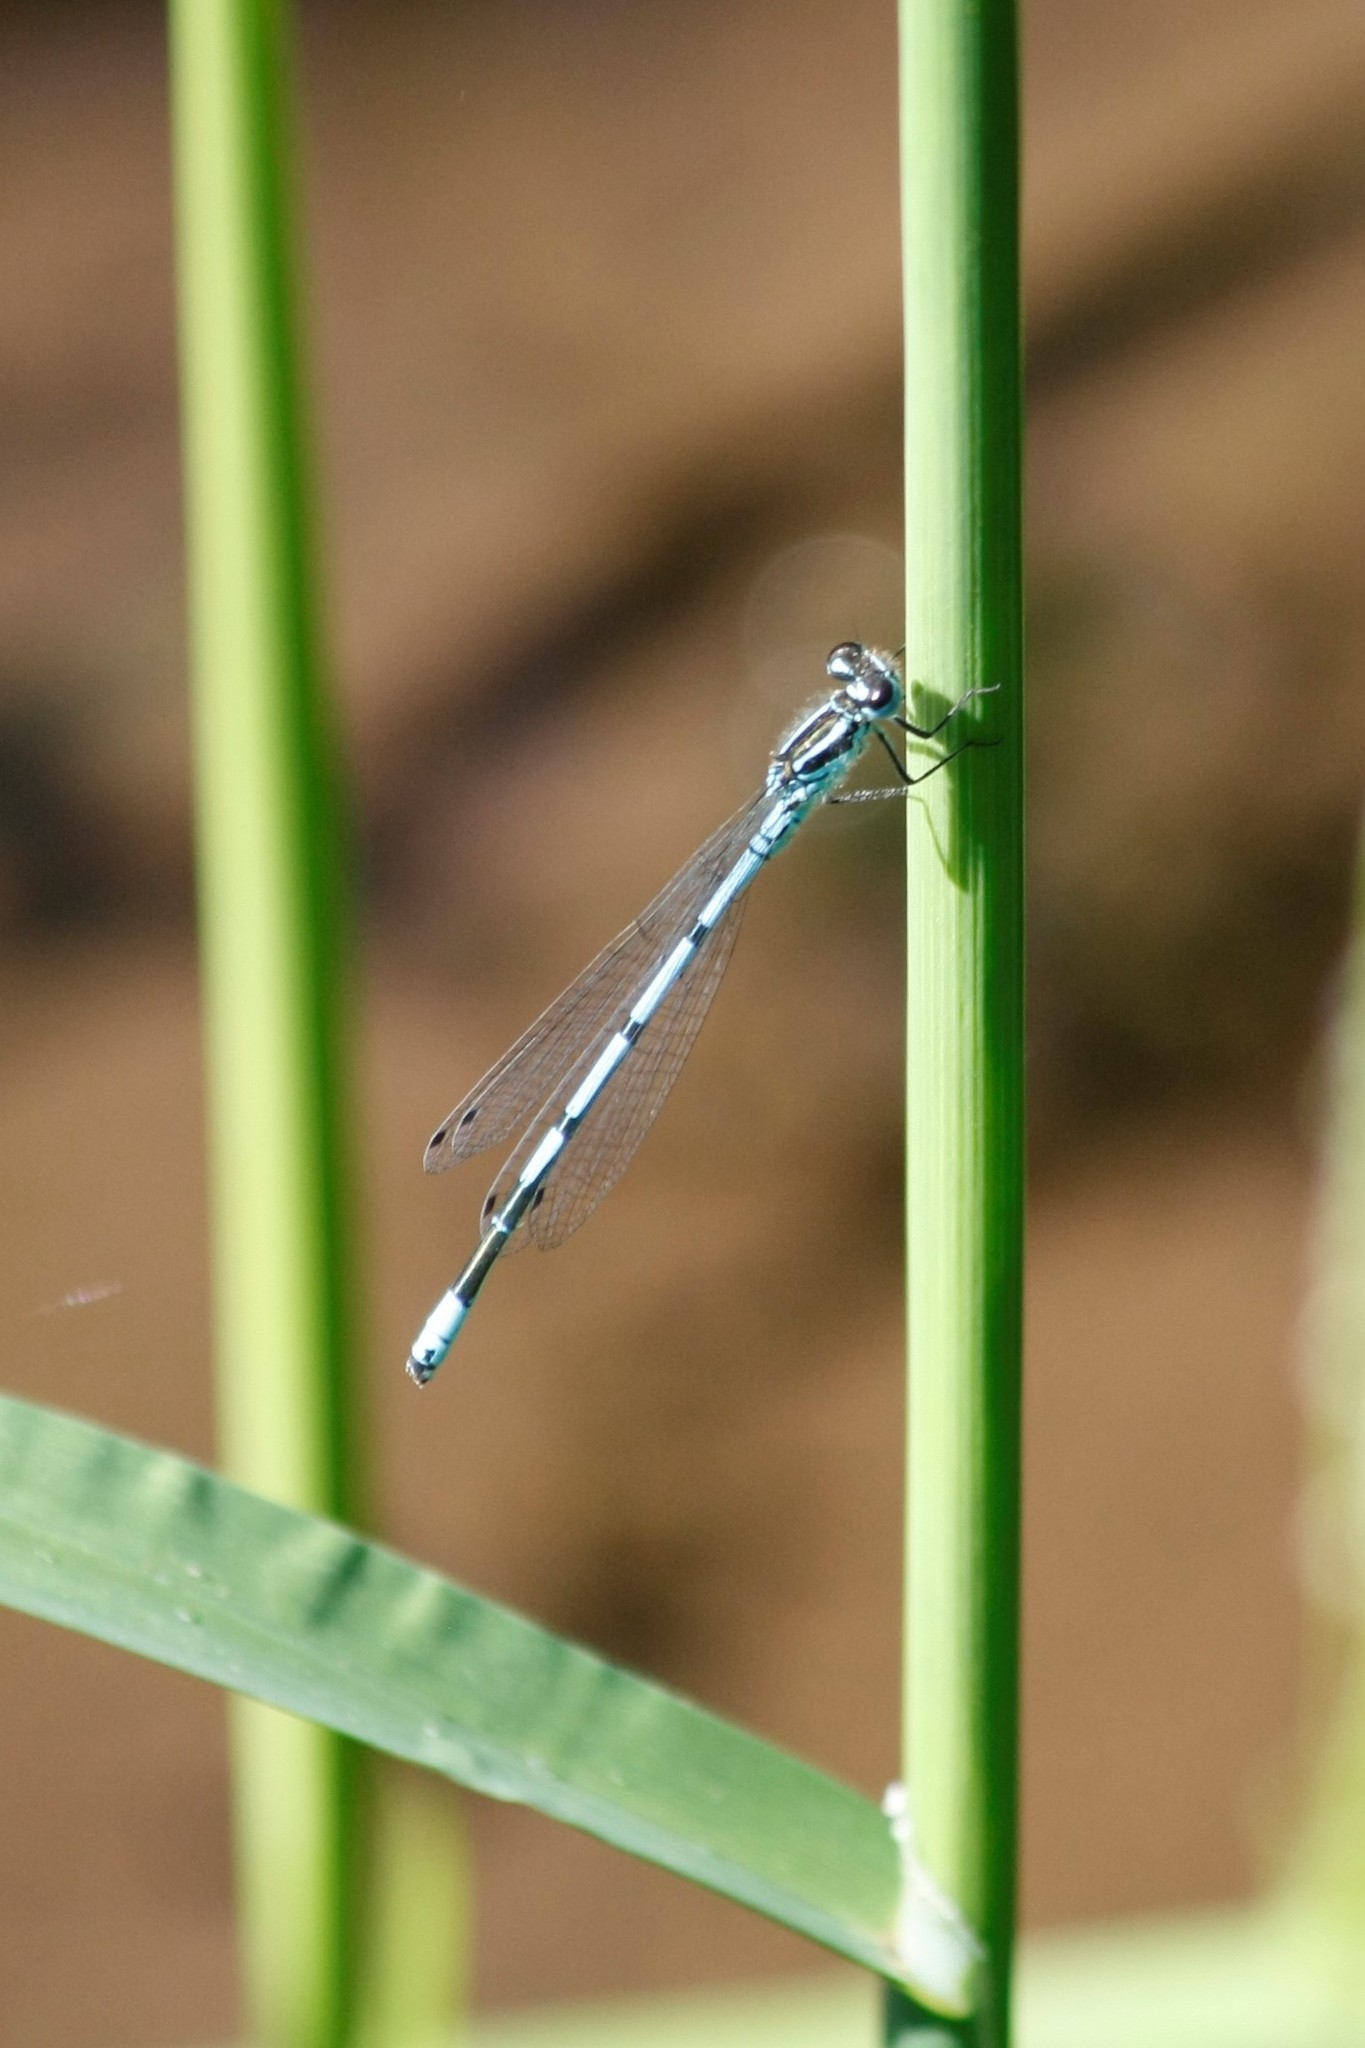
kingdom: Animalia
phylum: Arthropoda
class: Insecta
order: Odonata
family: Coenagrionidae
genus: Coenagrion
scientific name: Coenagrion puella
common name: Azure damselfly
